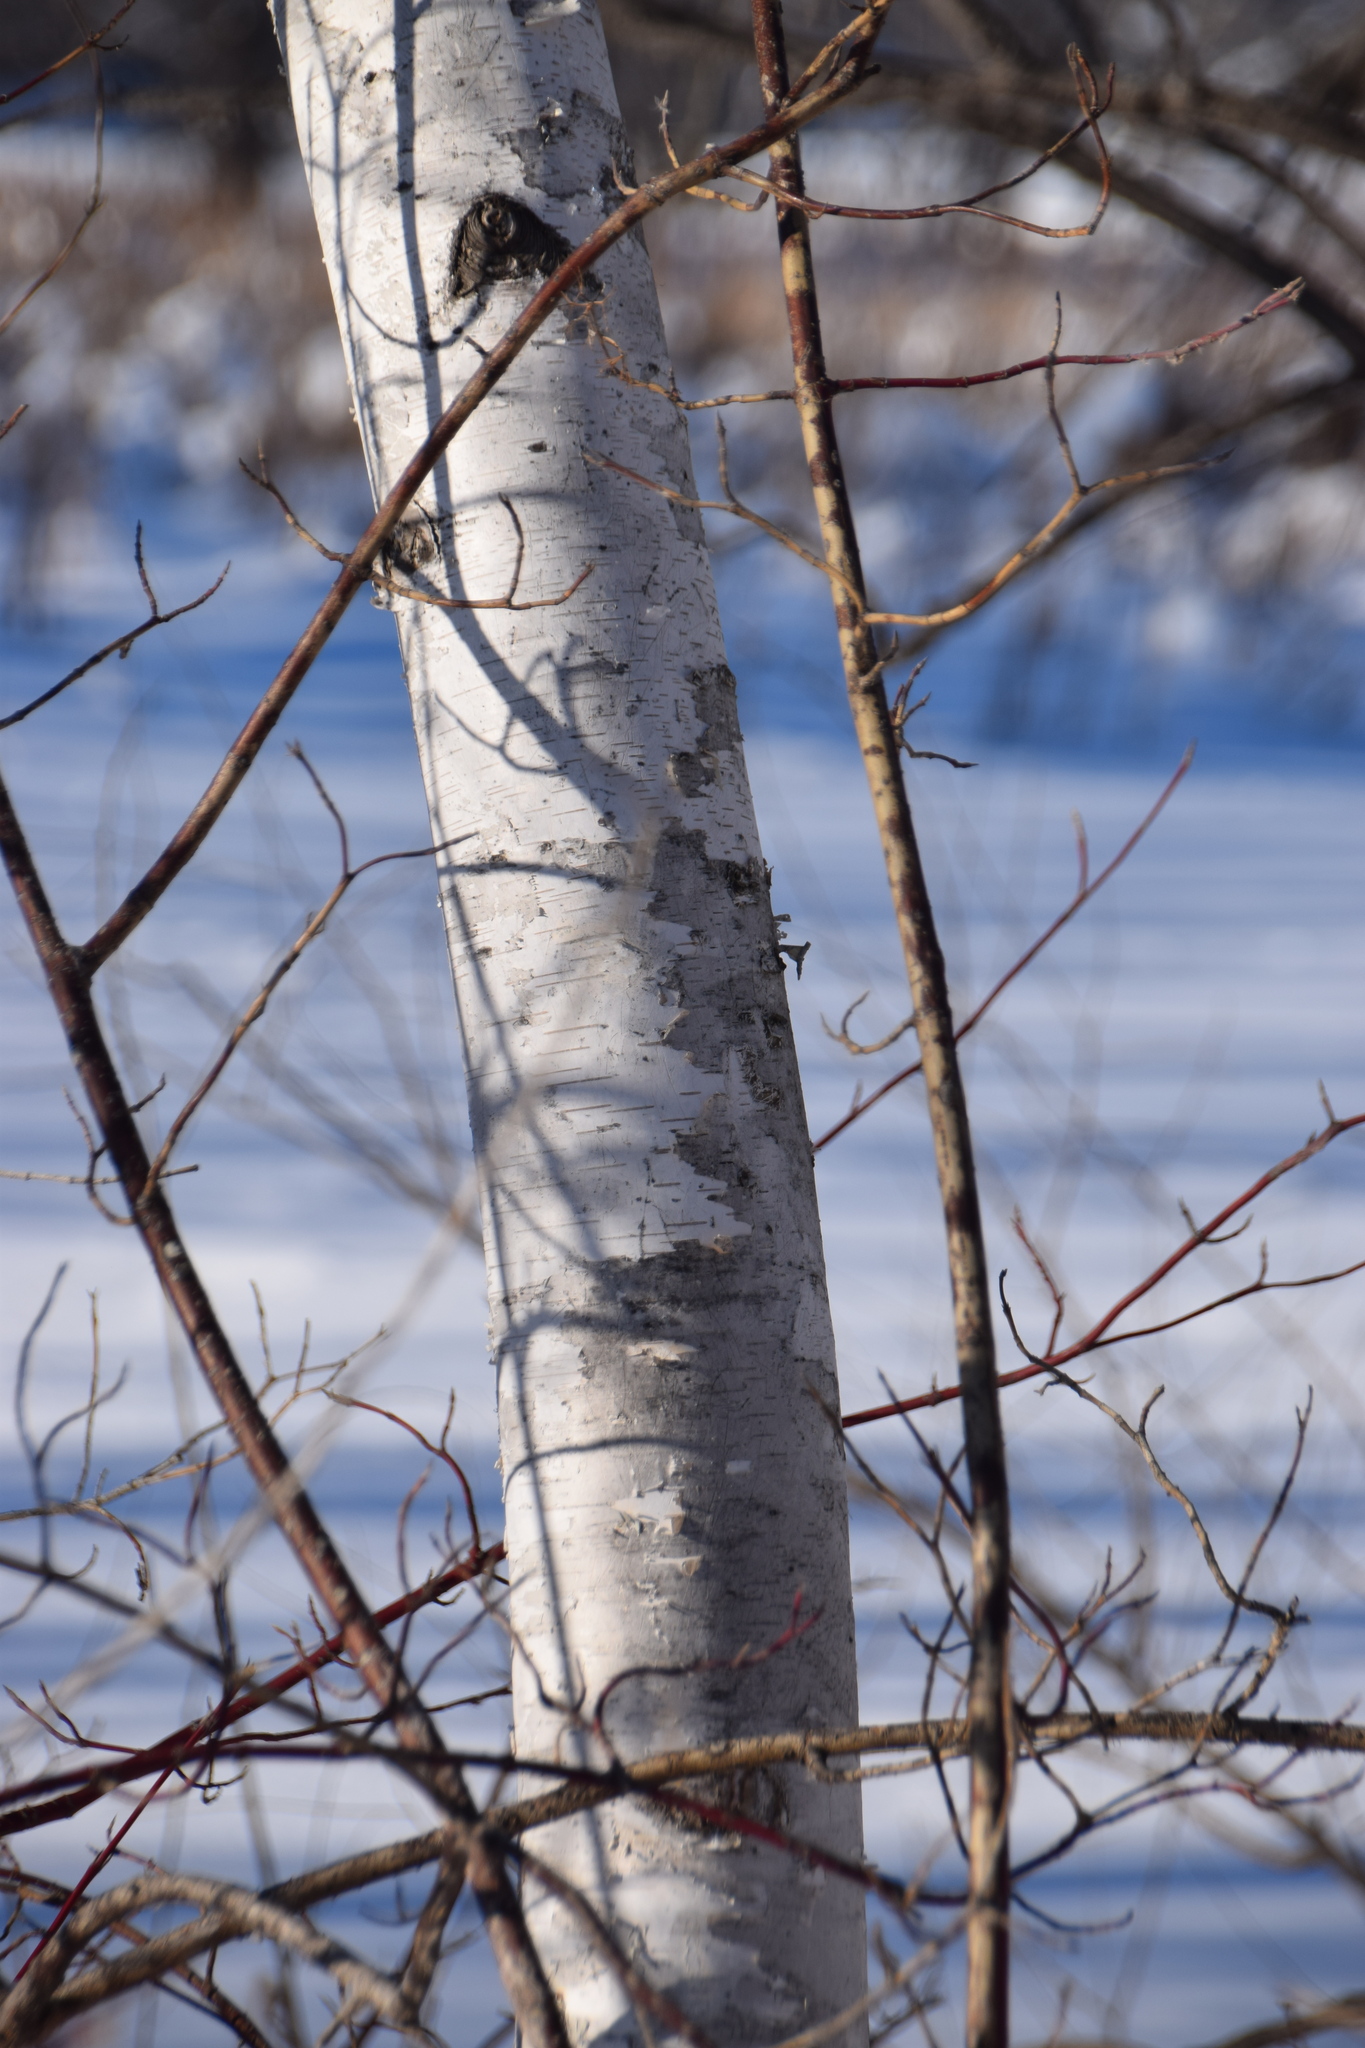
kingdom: Plantae
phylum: Tracheophyta
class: Magnoliopsida
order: Fagales
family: Betulaceae
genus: Betula
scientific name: Betula papyrifera
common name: Paper birch
